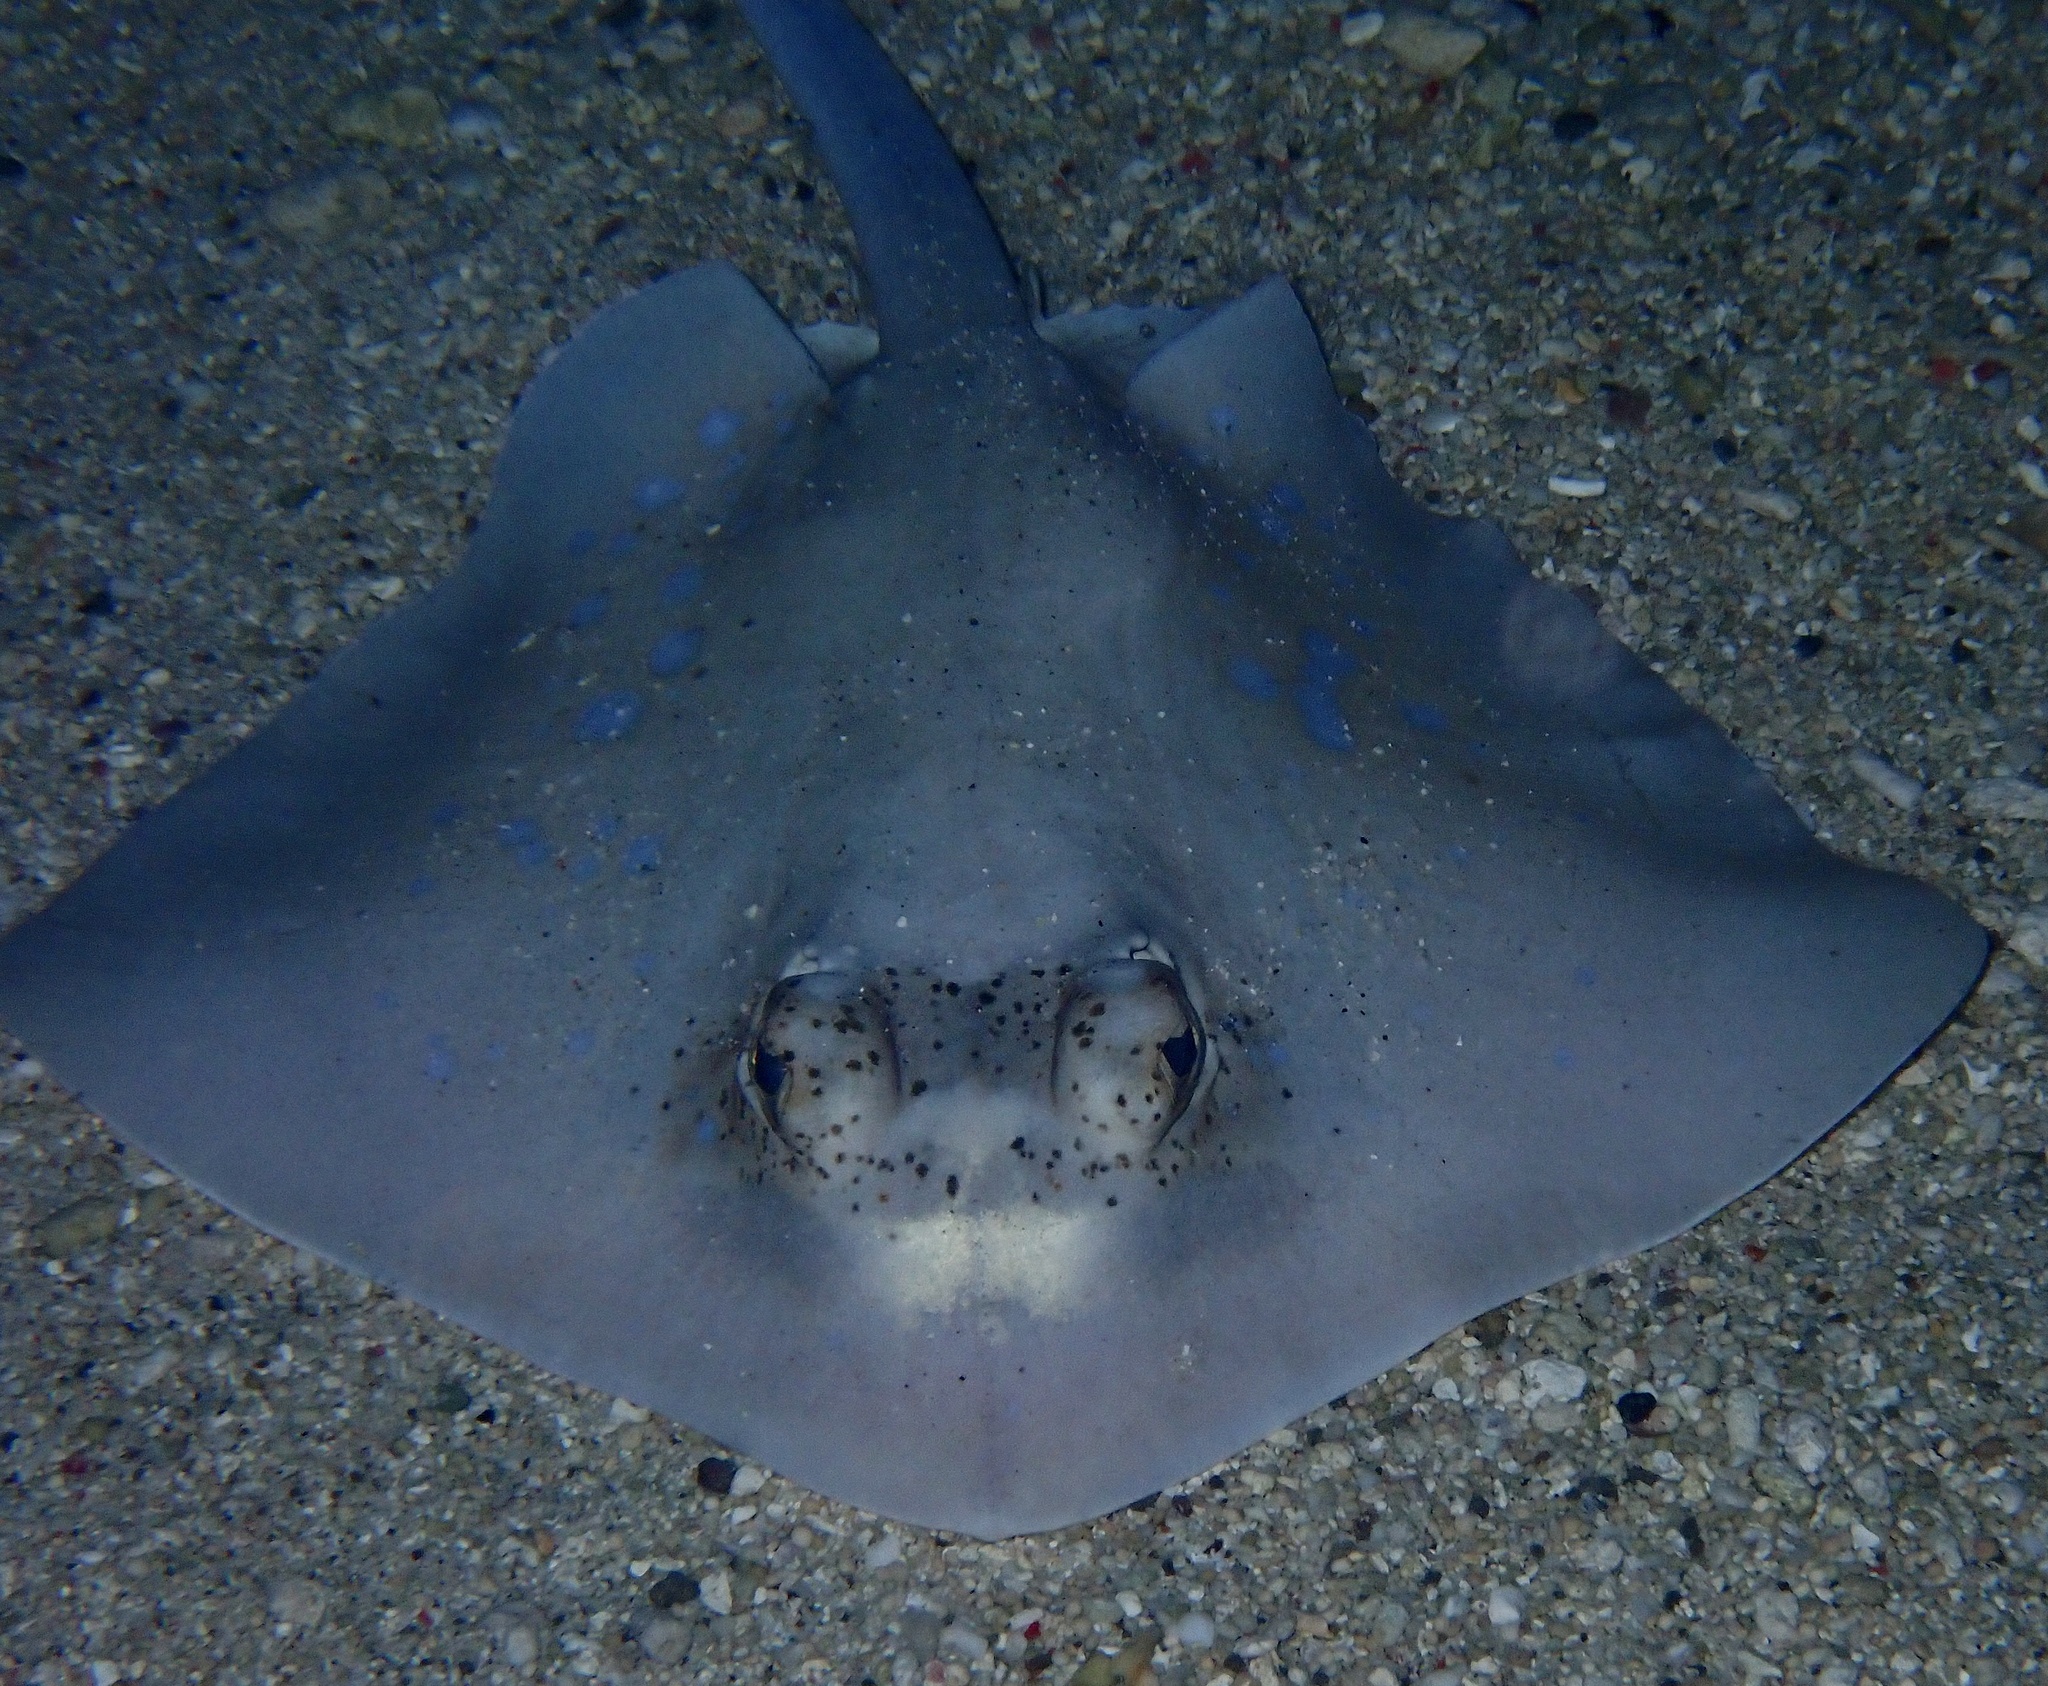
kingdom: Animalia
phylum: Chordata
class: Elasmobranchii
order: Myliobatiformes
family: Dasyatidae
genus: Neotrygon
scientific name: Neotrygon orientale
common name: Oriental bluespotted maskray
